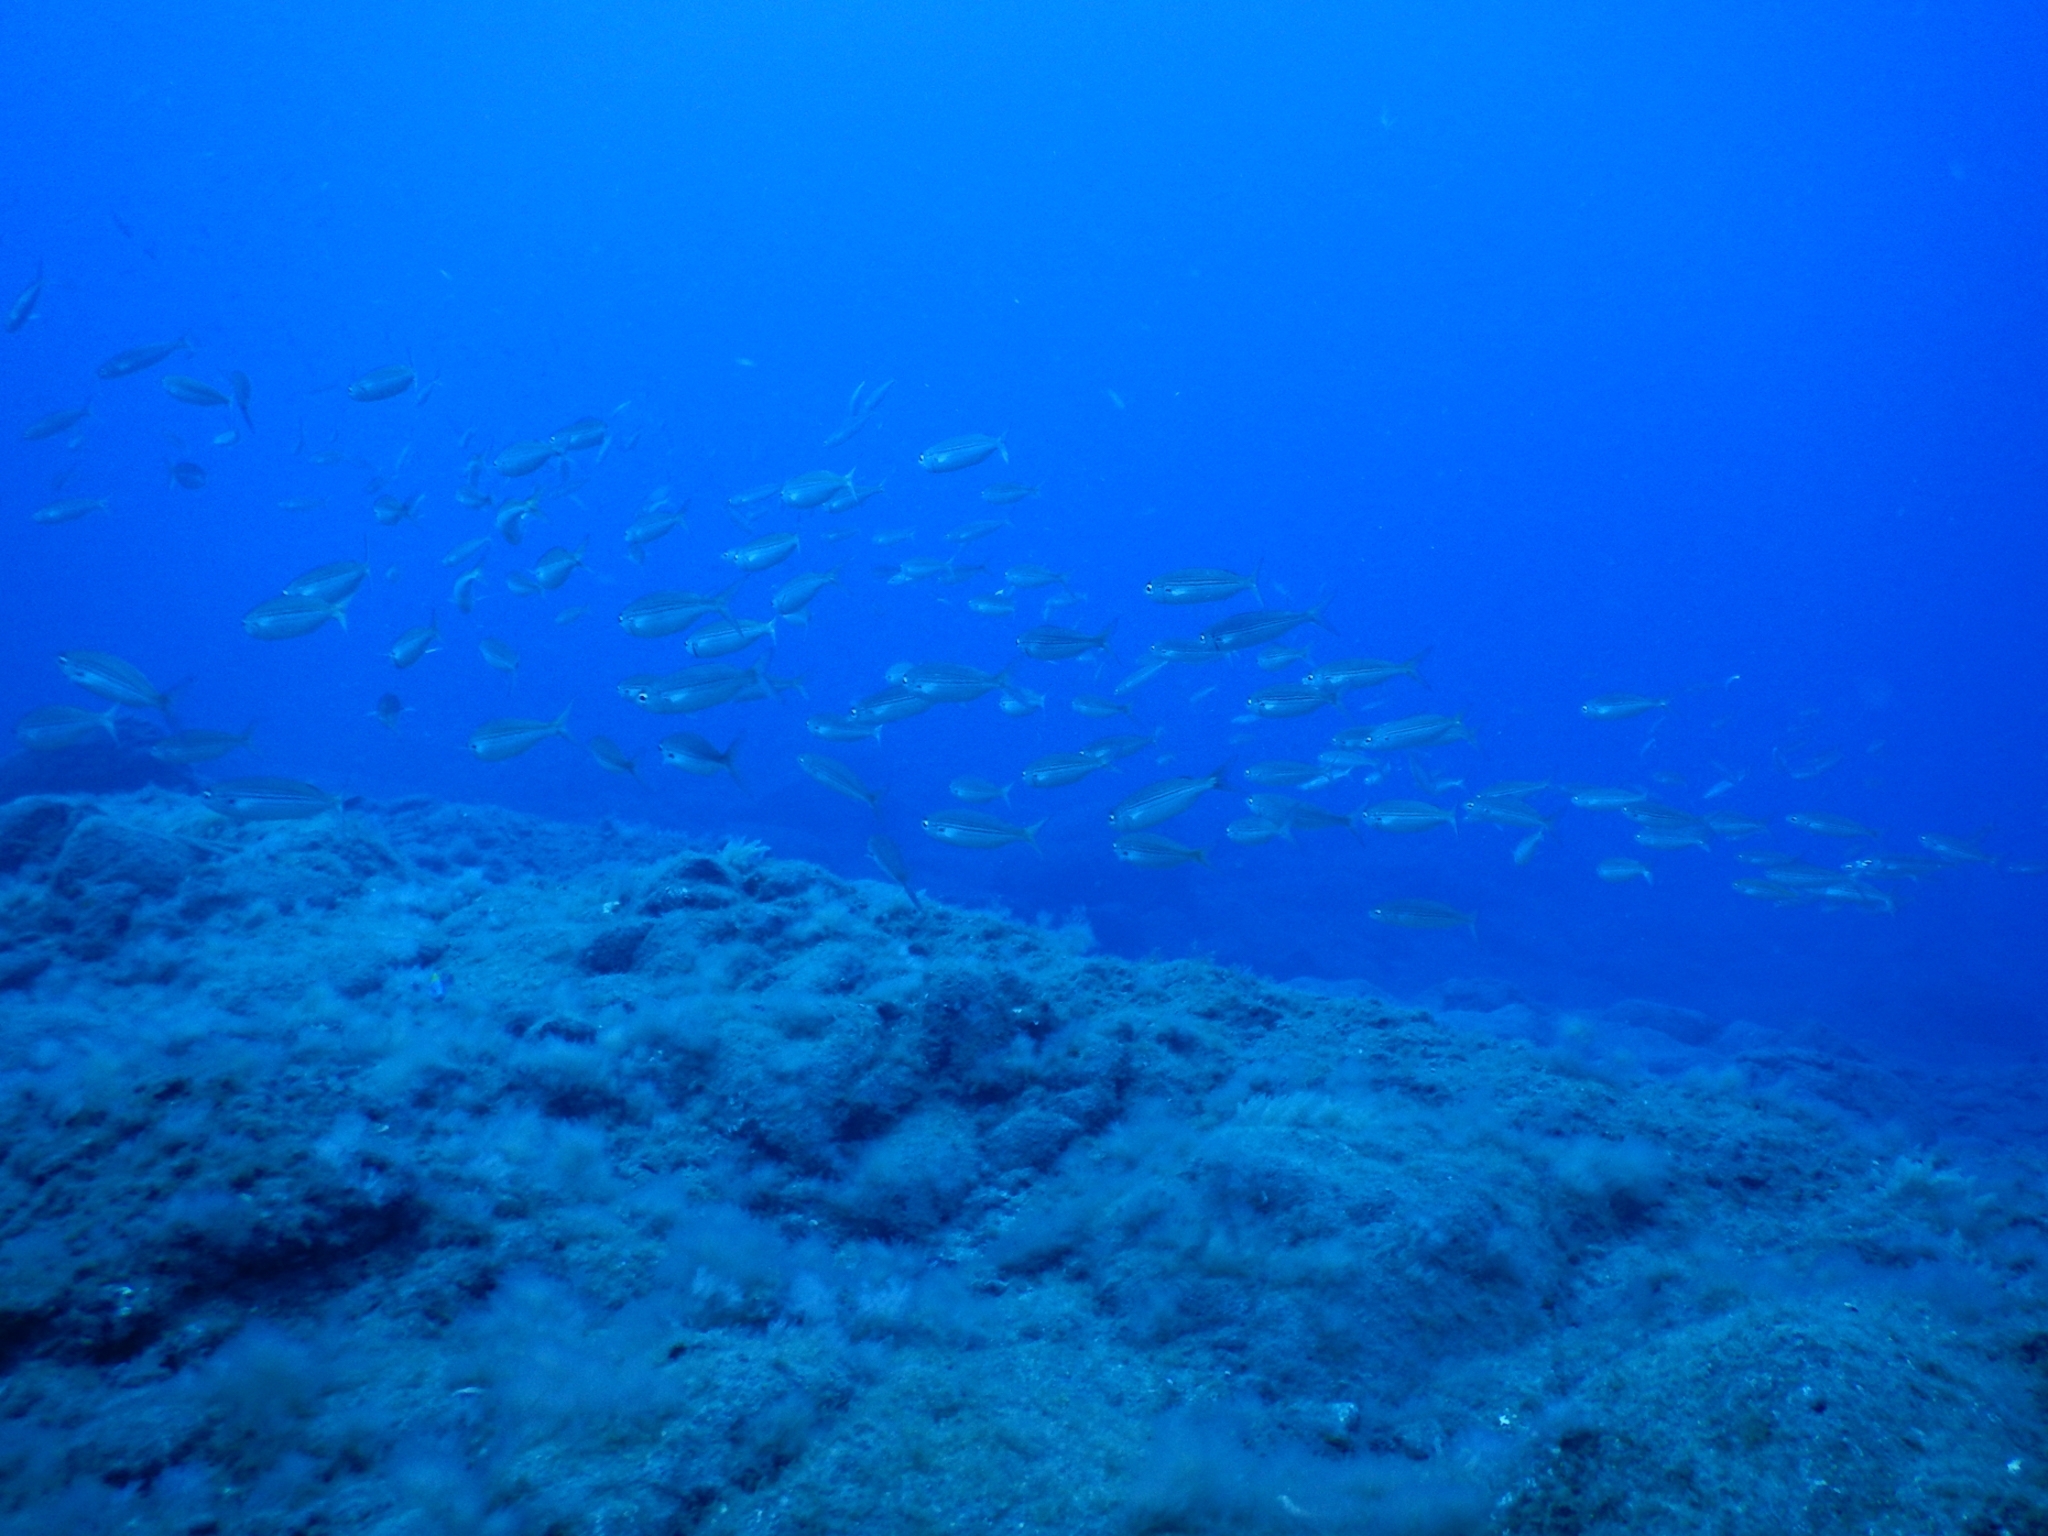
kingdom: Animalia
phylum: Chordata
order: Perciformes
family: Sparidae
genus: Boops
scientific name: Boops boops
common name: Bogue
